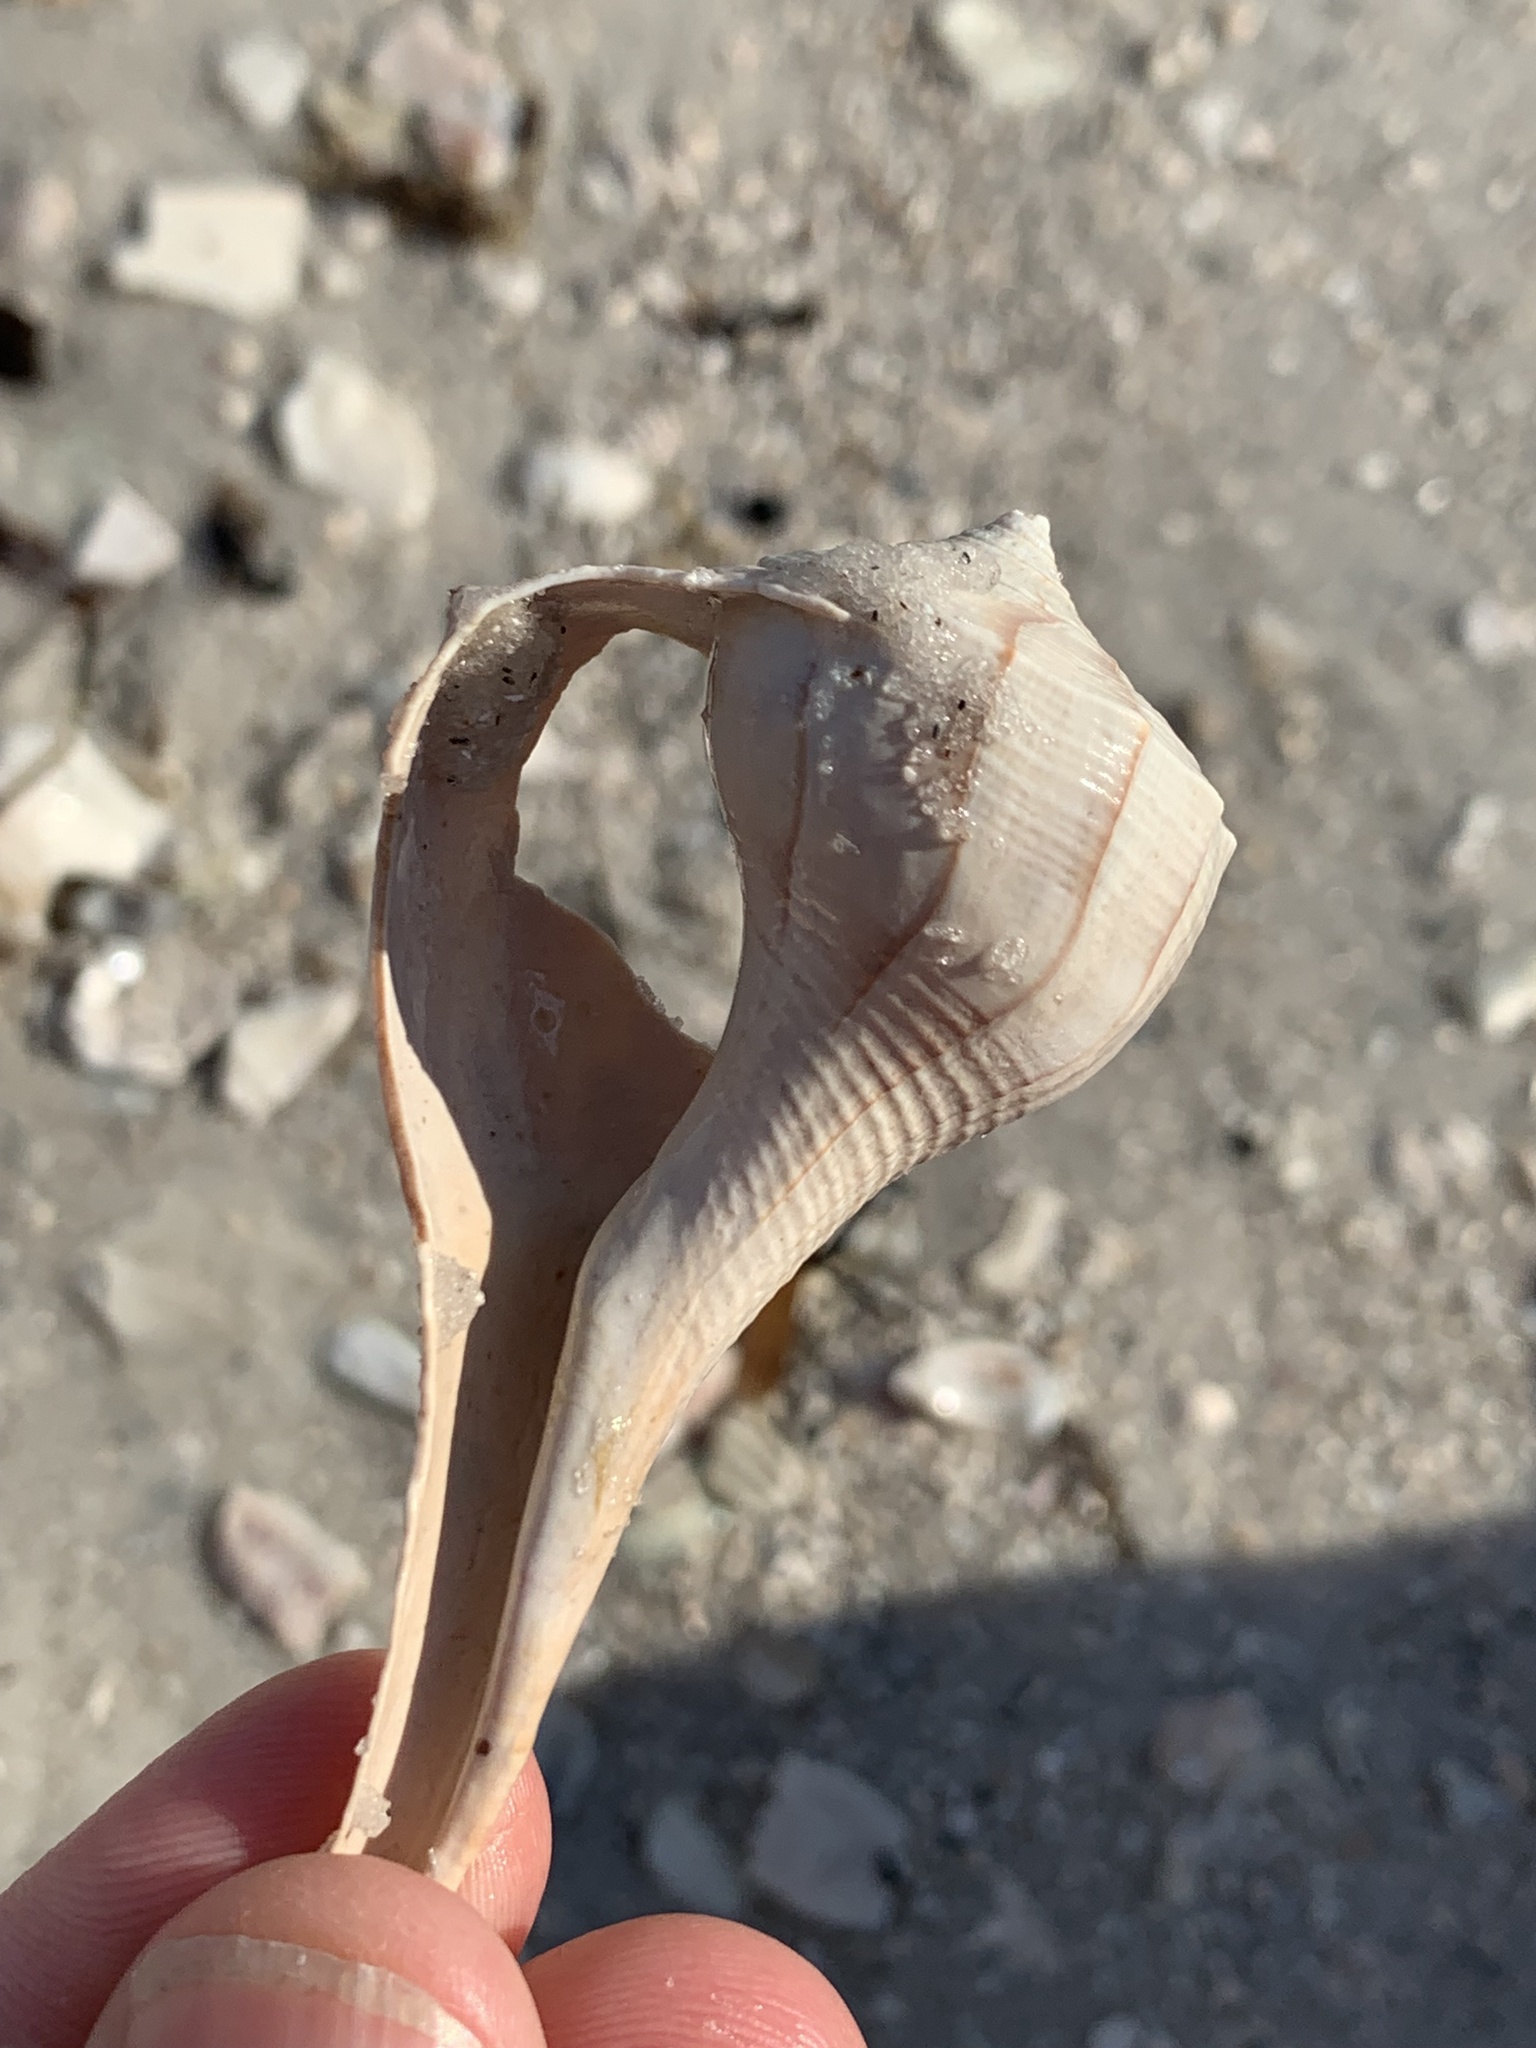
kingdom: Animalia
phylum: Mollusca
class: Gastropoda
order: Neogastropoda
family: Busyconidae
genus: Sinistrofulgur
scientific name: Sinistrofulgur sinistrum
